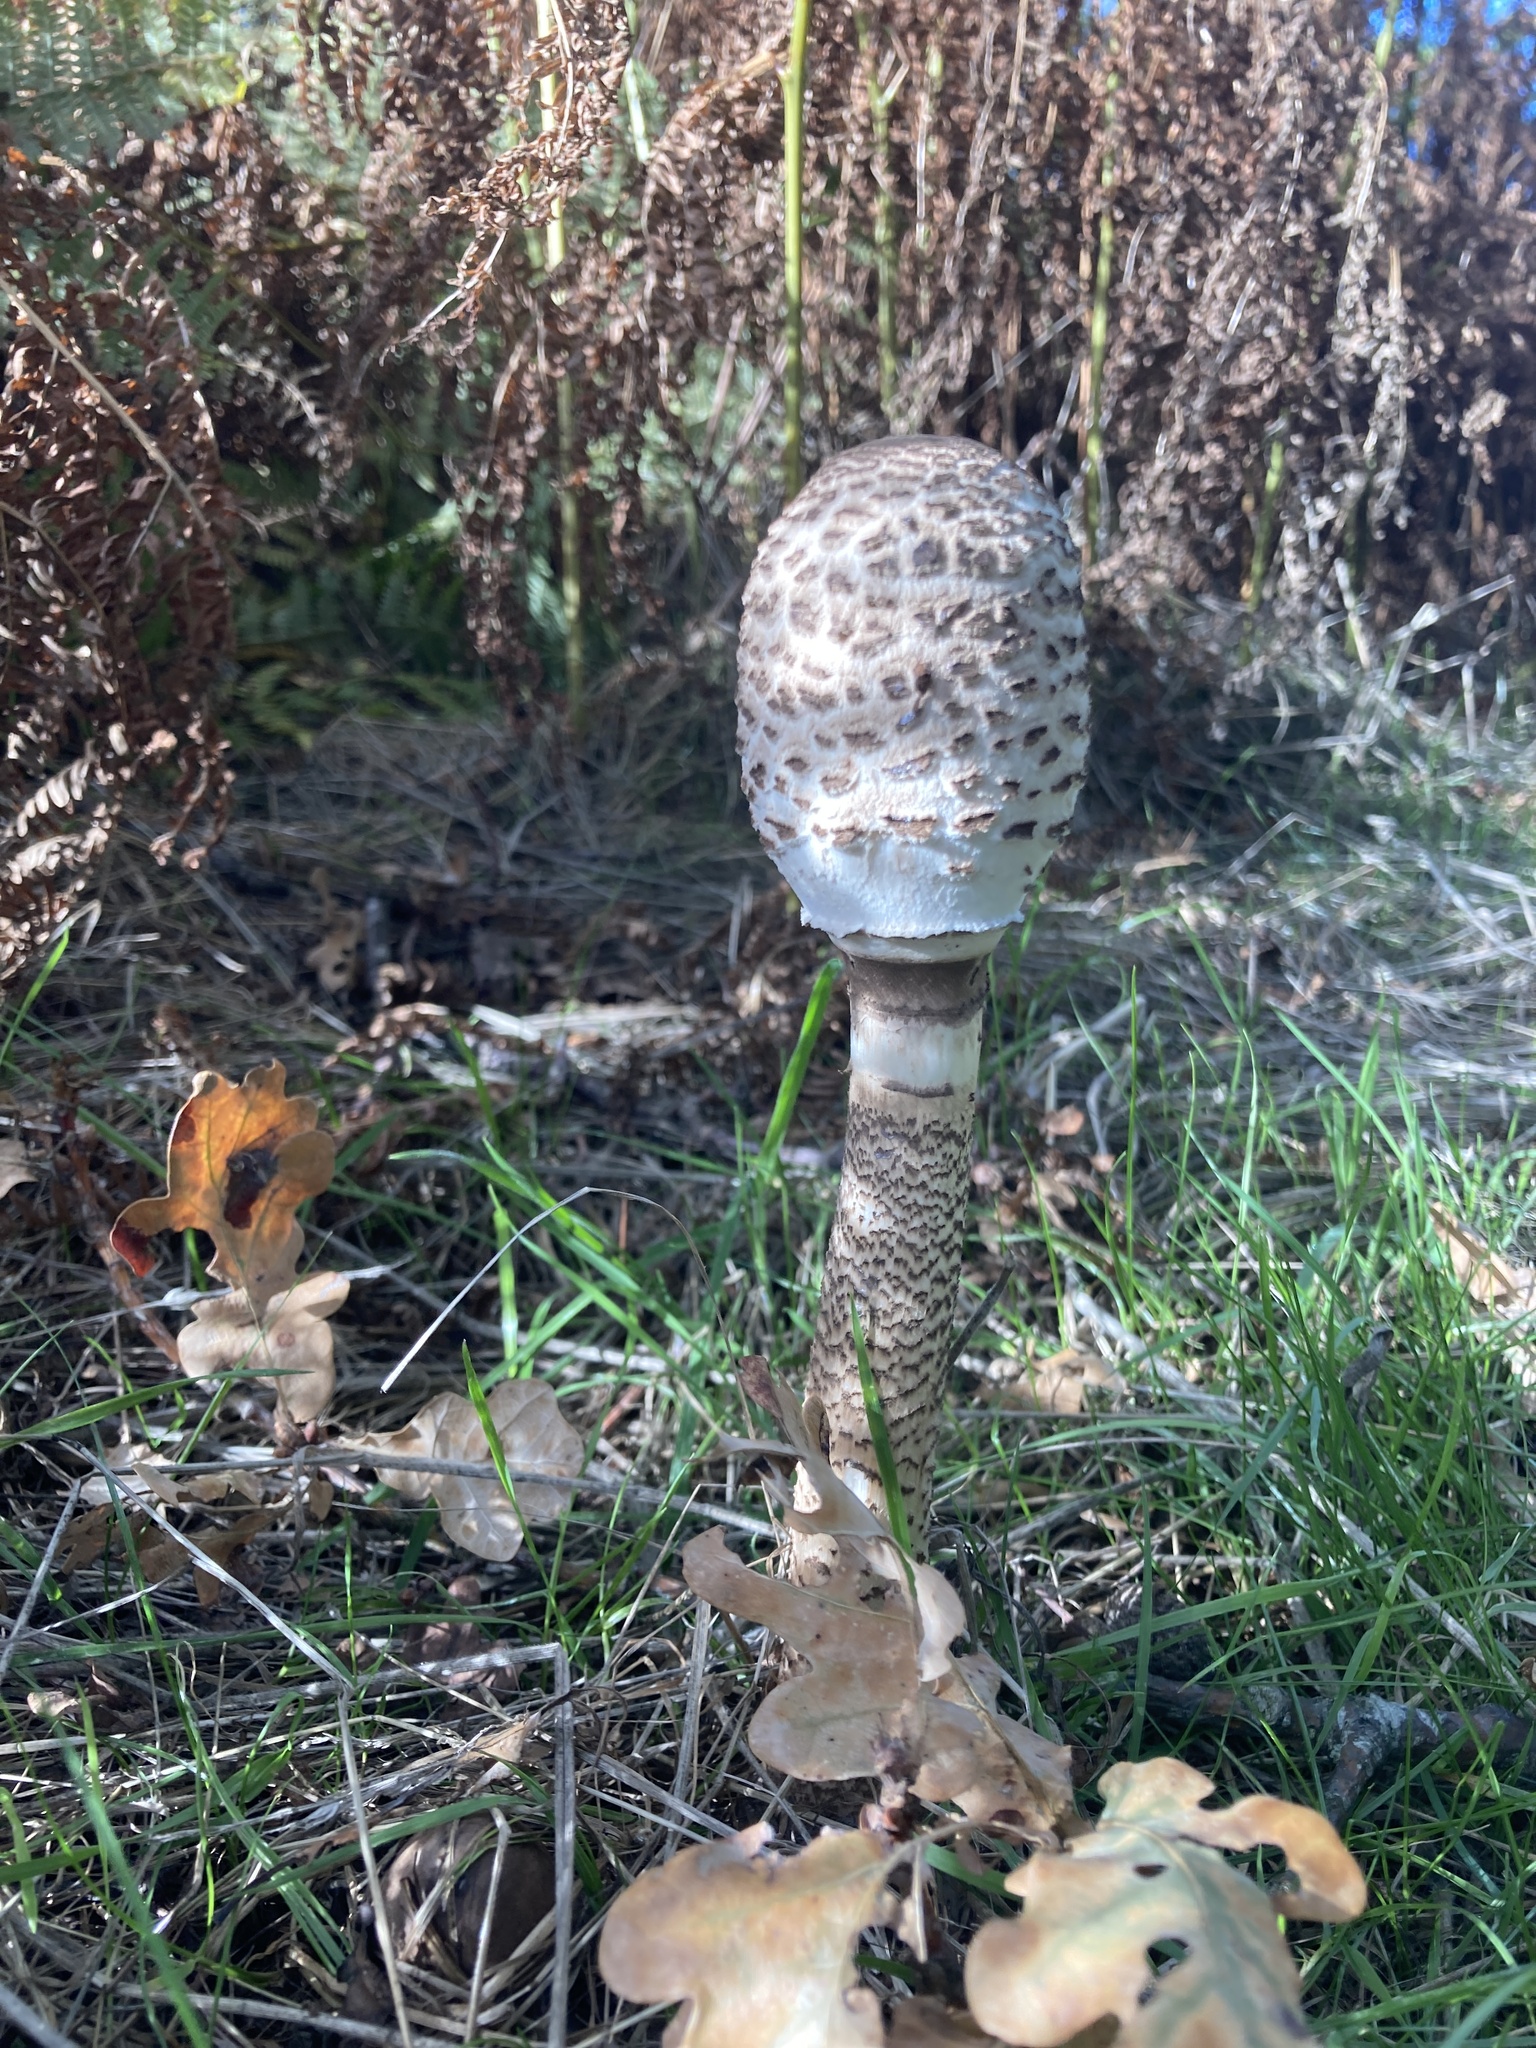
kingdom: Fungi
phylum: Basidiomycota
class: Agaricomycetes
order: Agaricales
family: Agaricaceae
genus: Macrolepiota
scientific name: Macrolepiota procera
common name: Parasol
